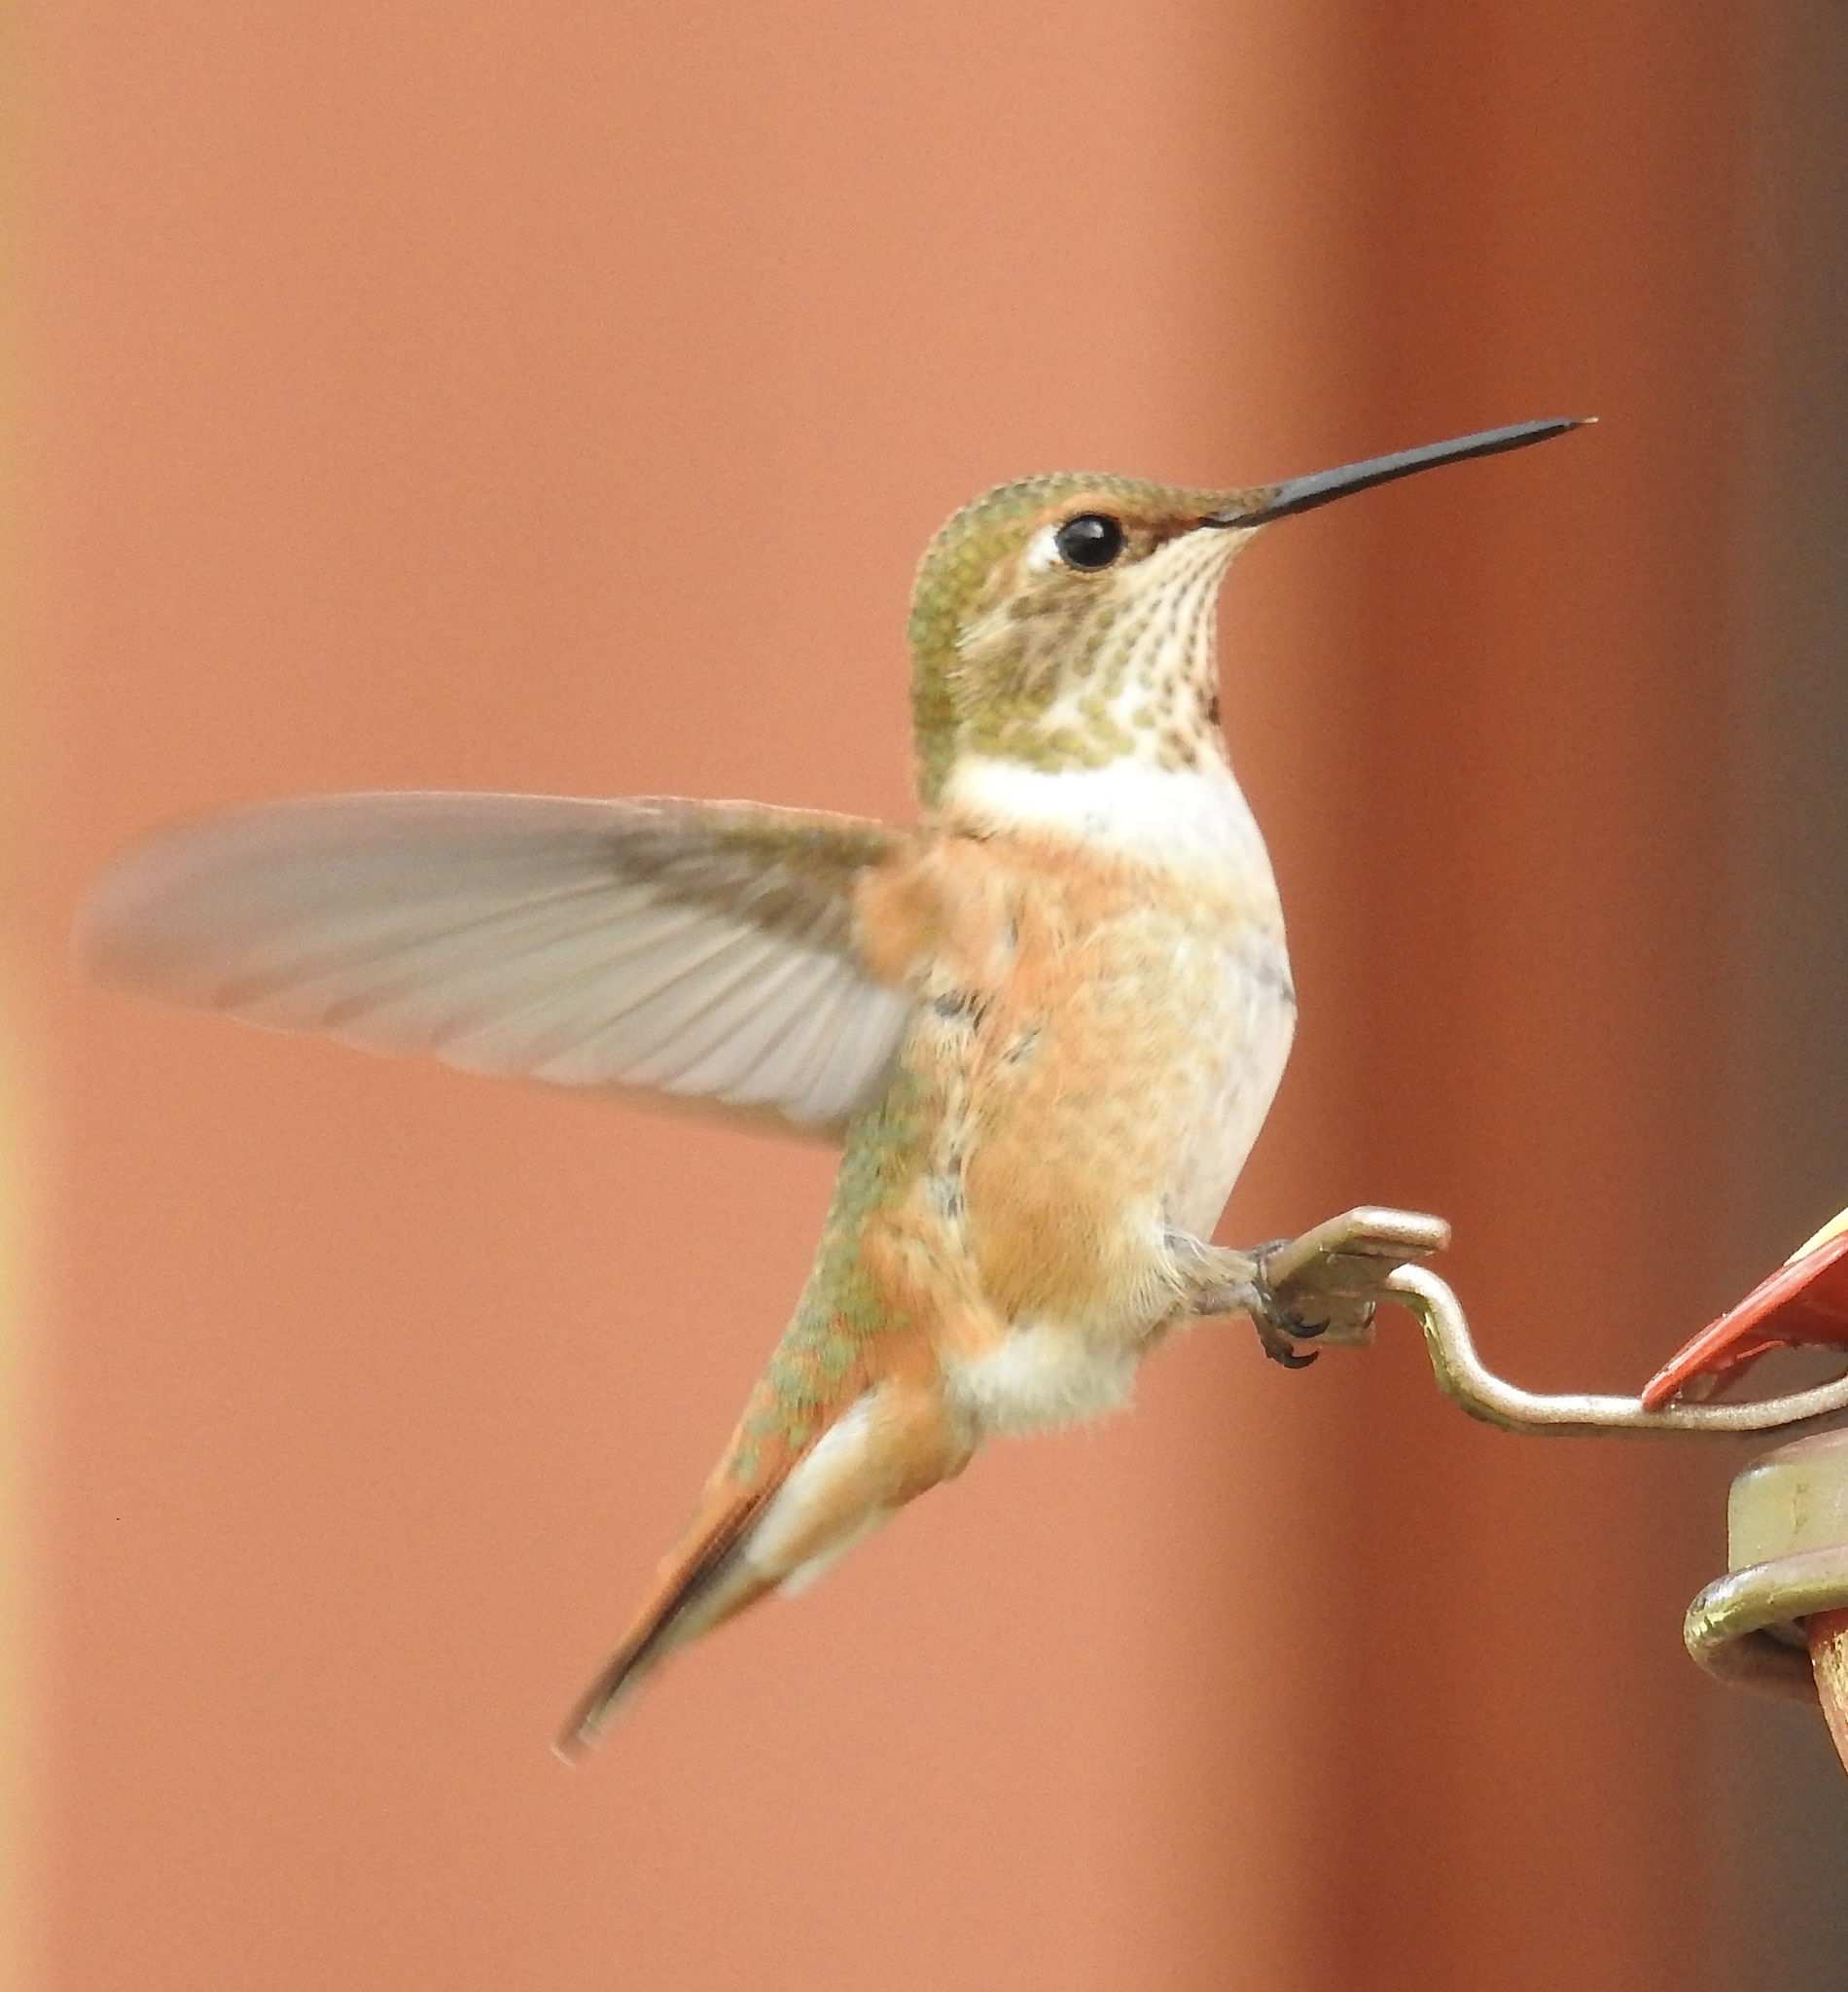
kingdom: Animalia
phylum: Chordata
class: Aves
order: Apodiformes
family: Trochilidae
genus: Selasphorus
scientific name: Selasphorus rufus
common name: Rufous hummingbird
